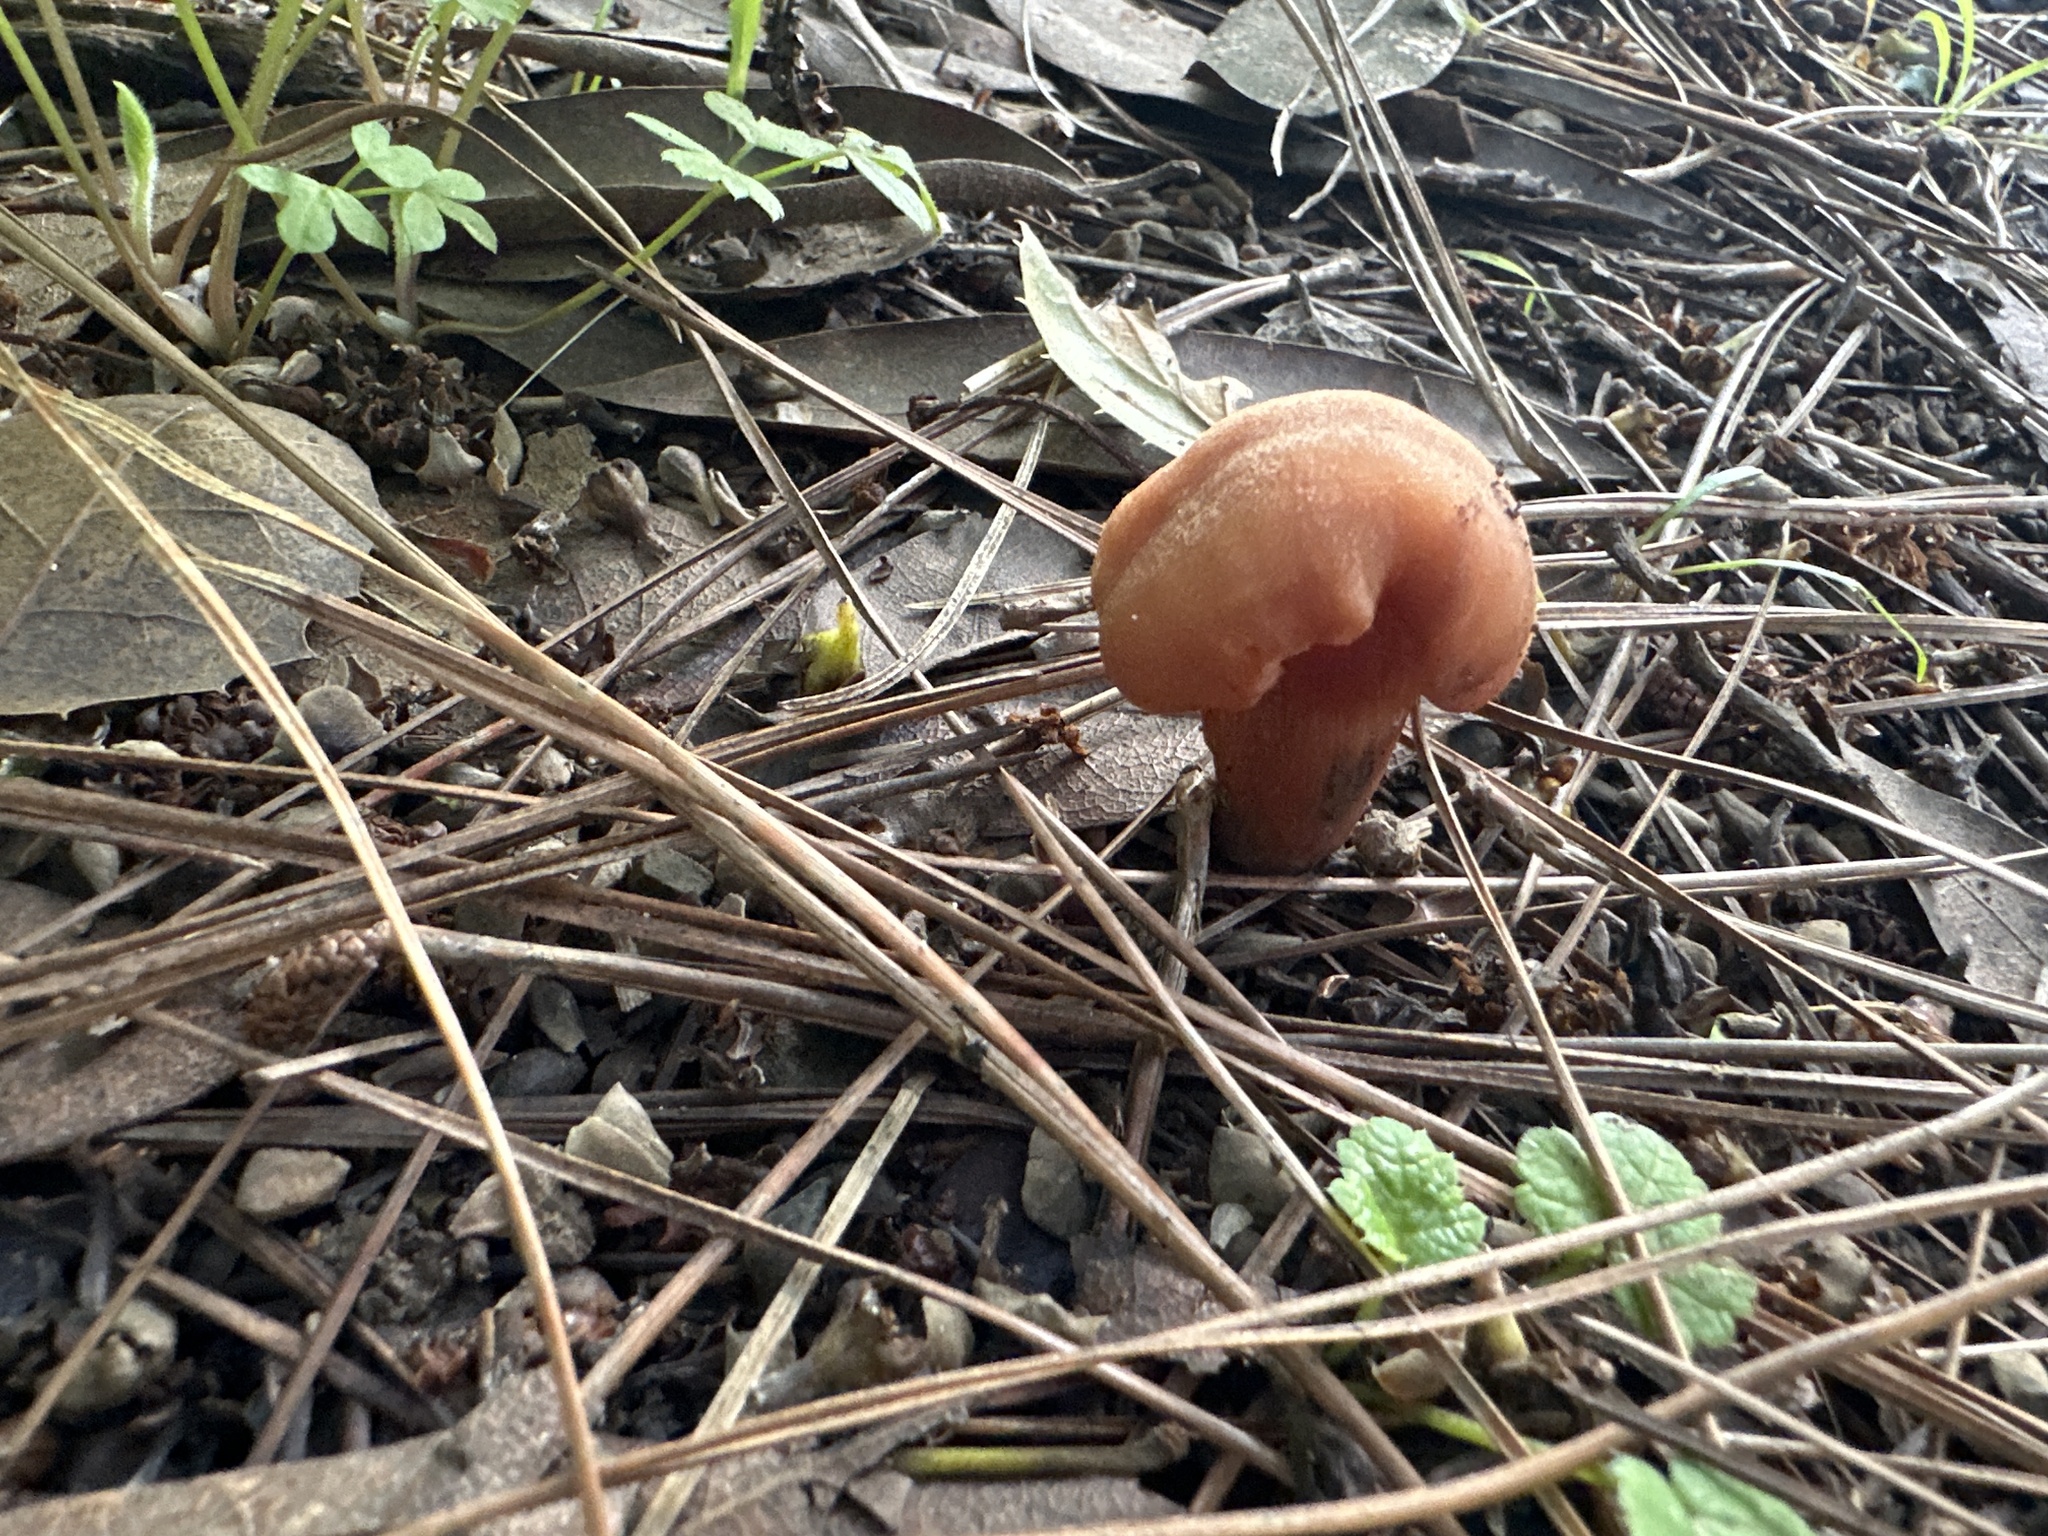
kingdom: Fungi
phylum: Basidiomycota
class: Agaricomycetes
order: Agaricales
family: Hydnangiaceae
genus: Laccaria
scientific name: Laccaria laccata
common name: Deceiver
